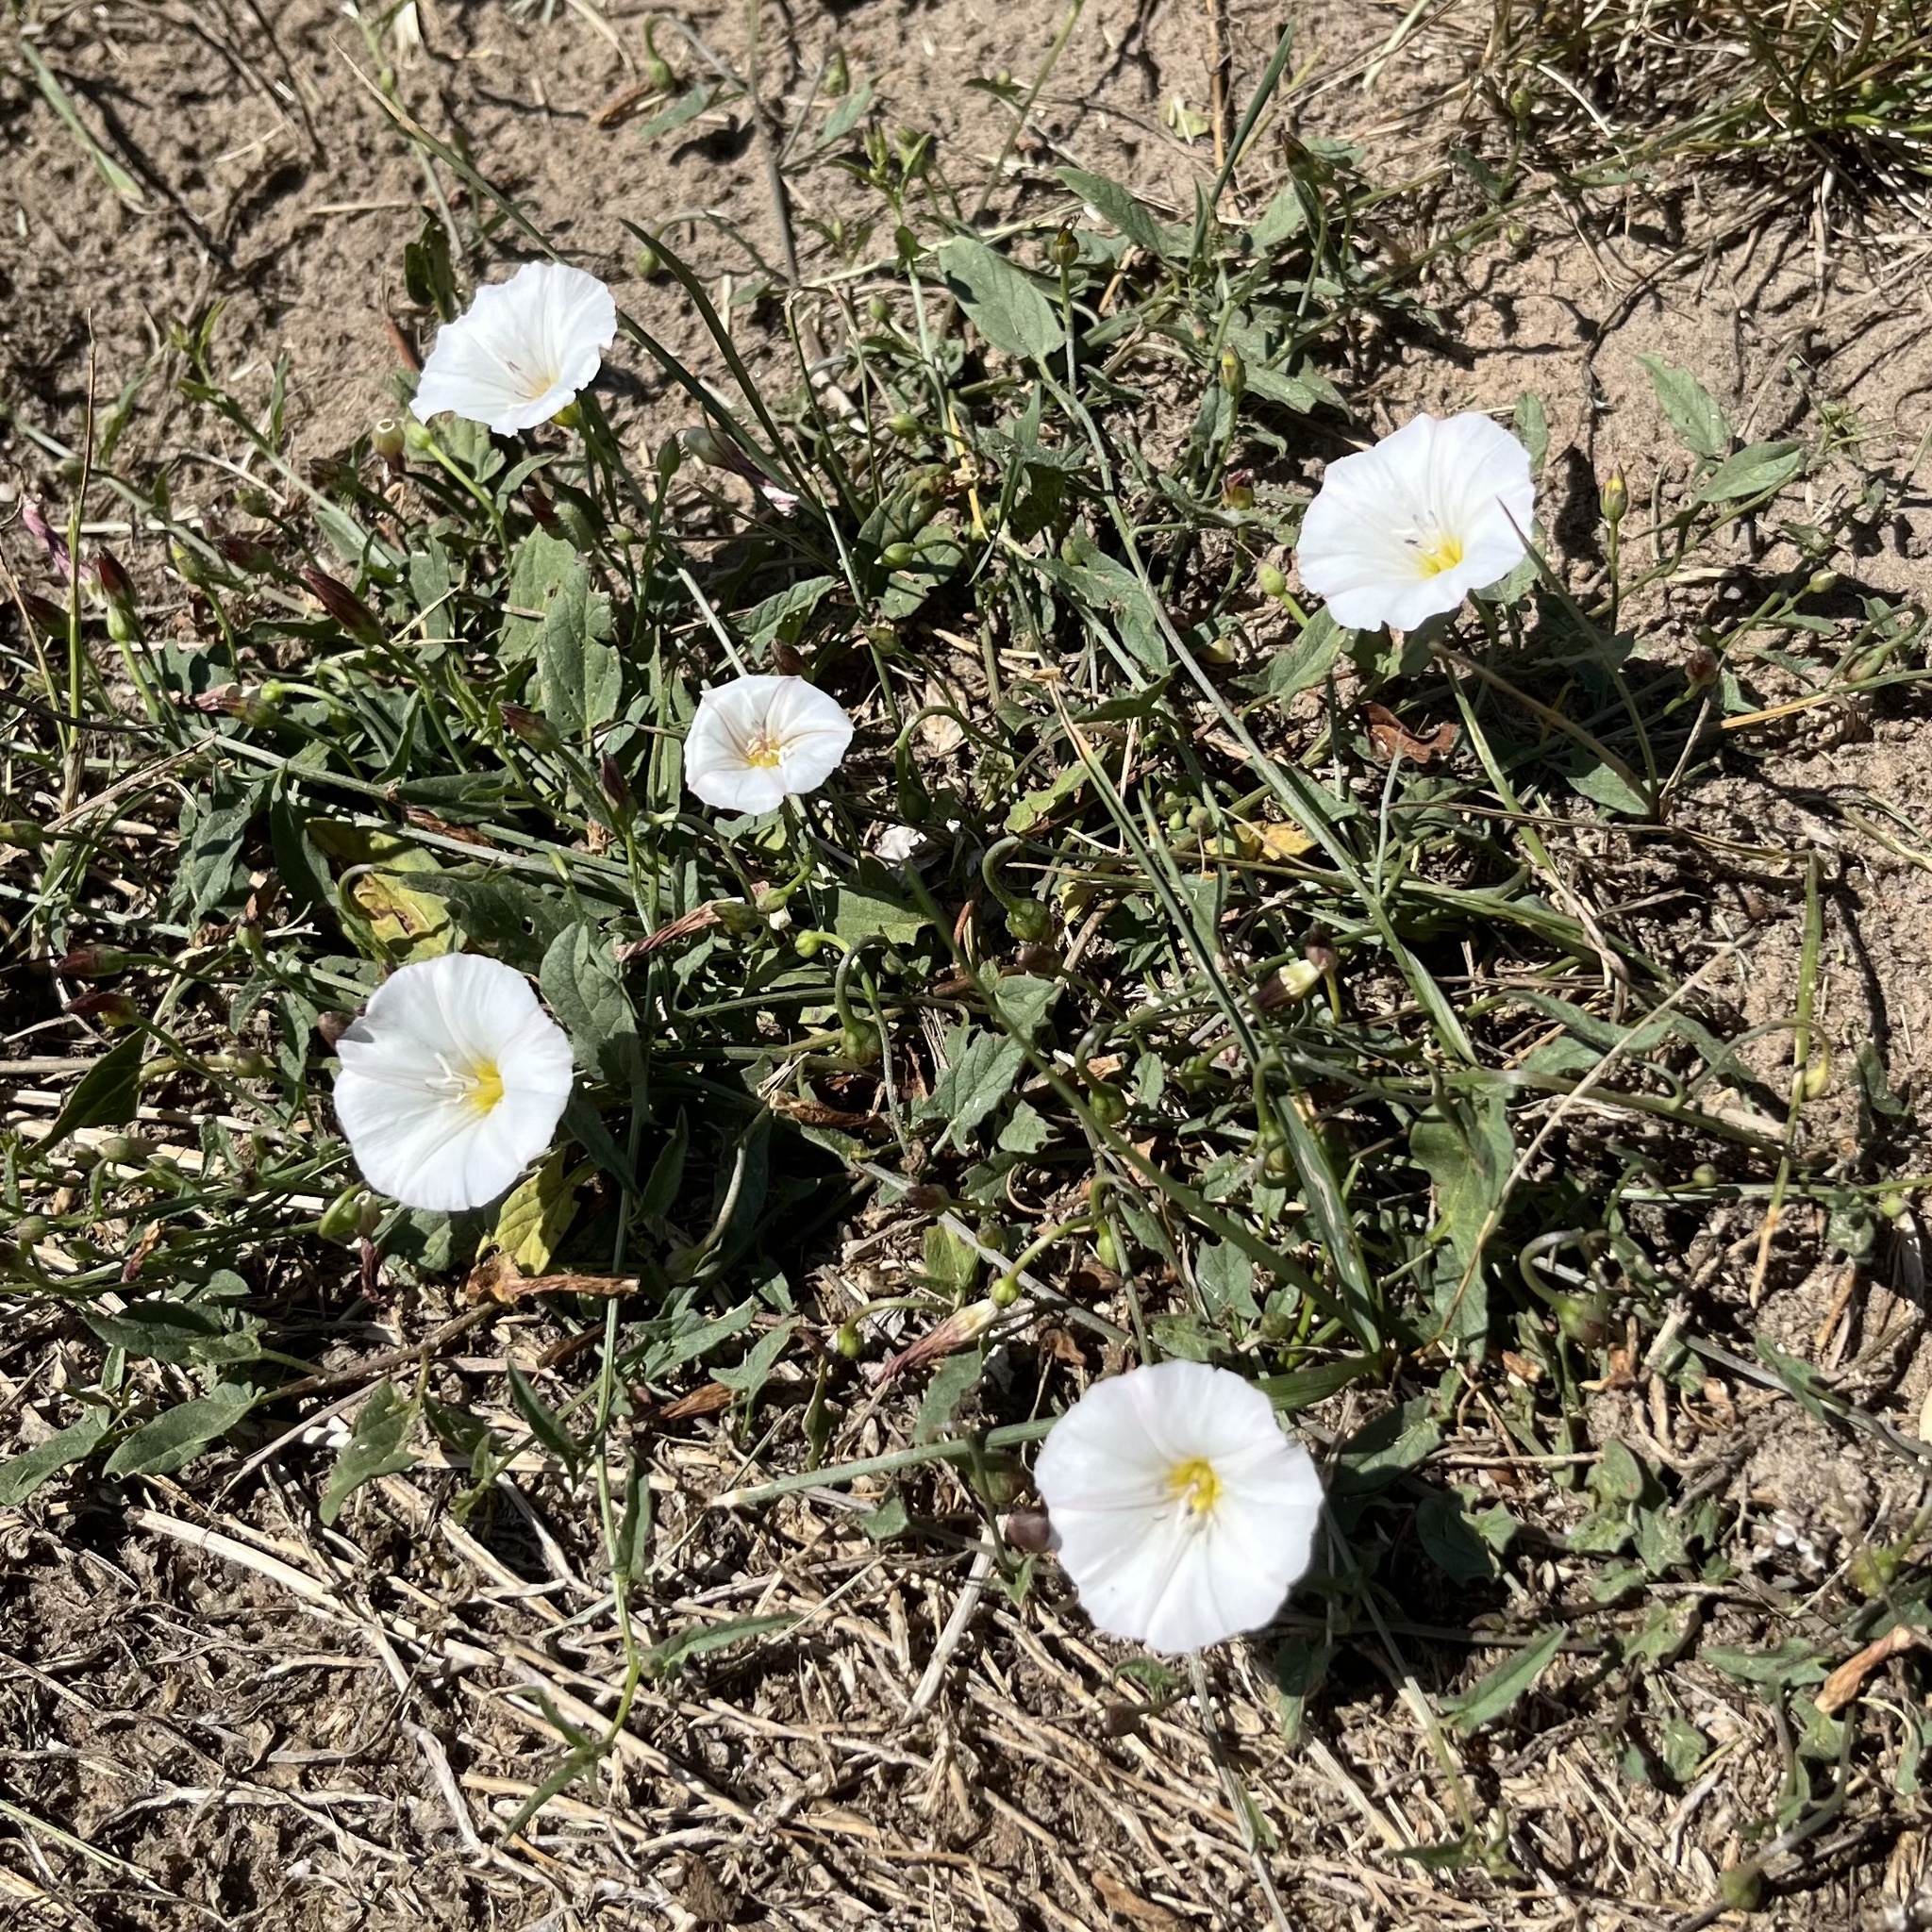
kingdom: Plantae
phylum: Tracheophyta
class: Magnoliopsida
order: Solanales
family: Convolvulaceae
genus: Convolvulus
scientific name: Convolvulus arvensis
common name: Field bindweed
